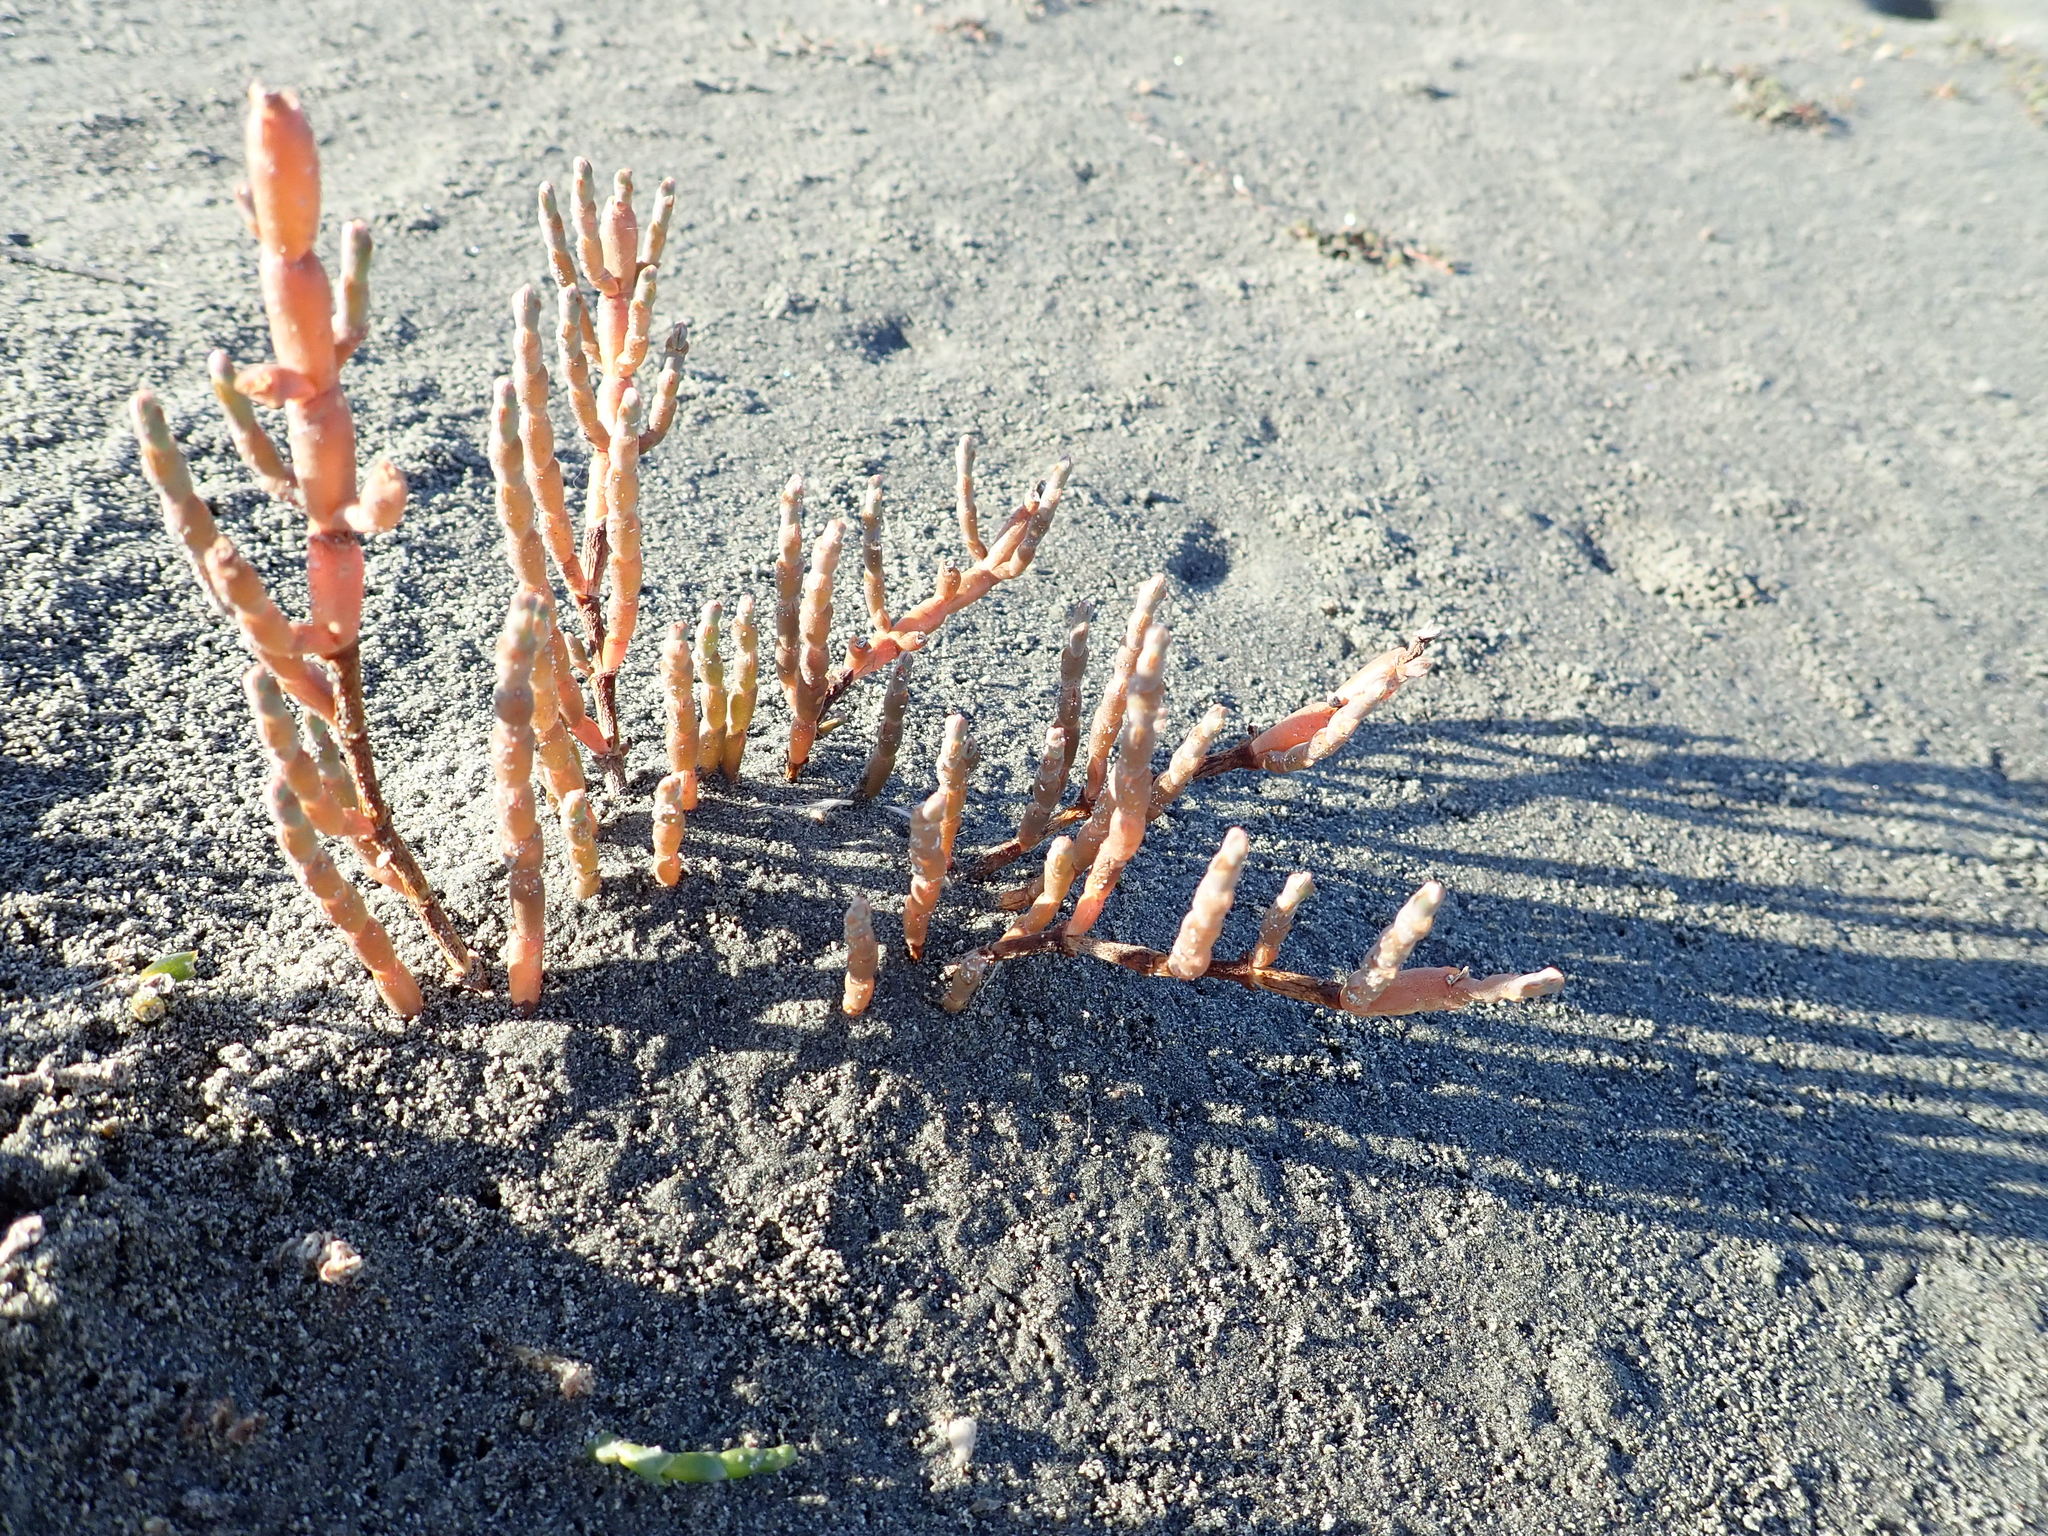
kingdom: Plantae
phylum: Tracheophyta
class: Magnoliopsida
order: Caryophyllales
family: Amaranthaceae
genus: Salicornia
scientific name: Salicornia quinqueflora
